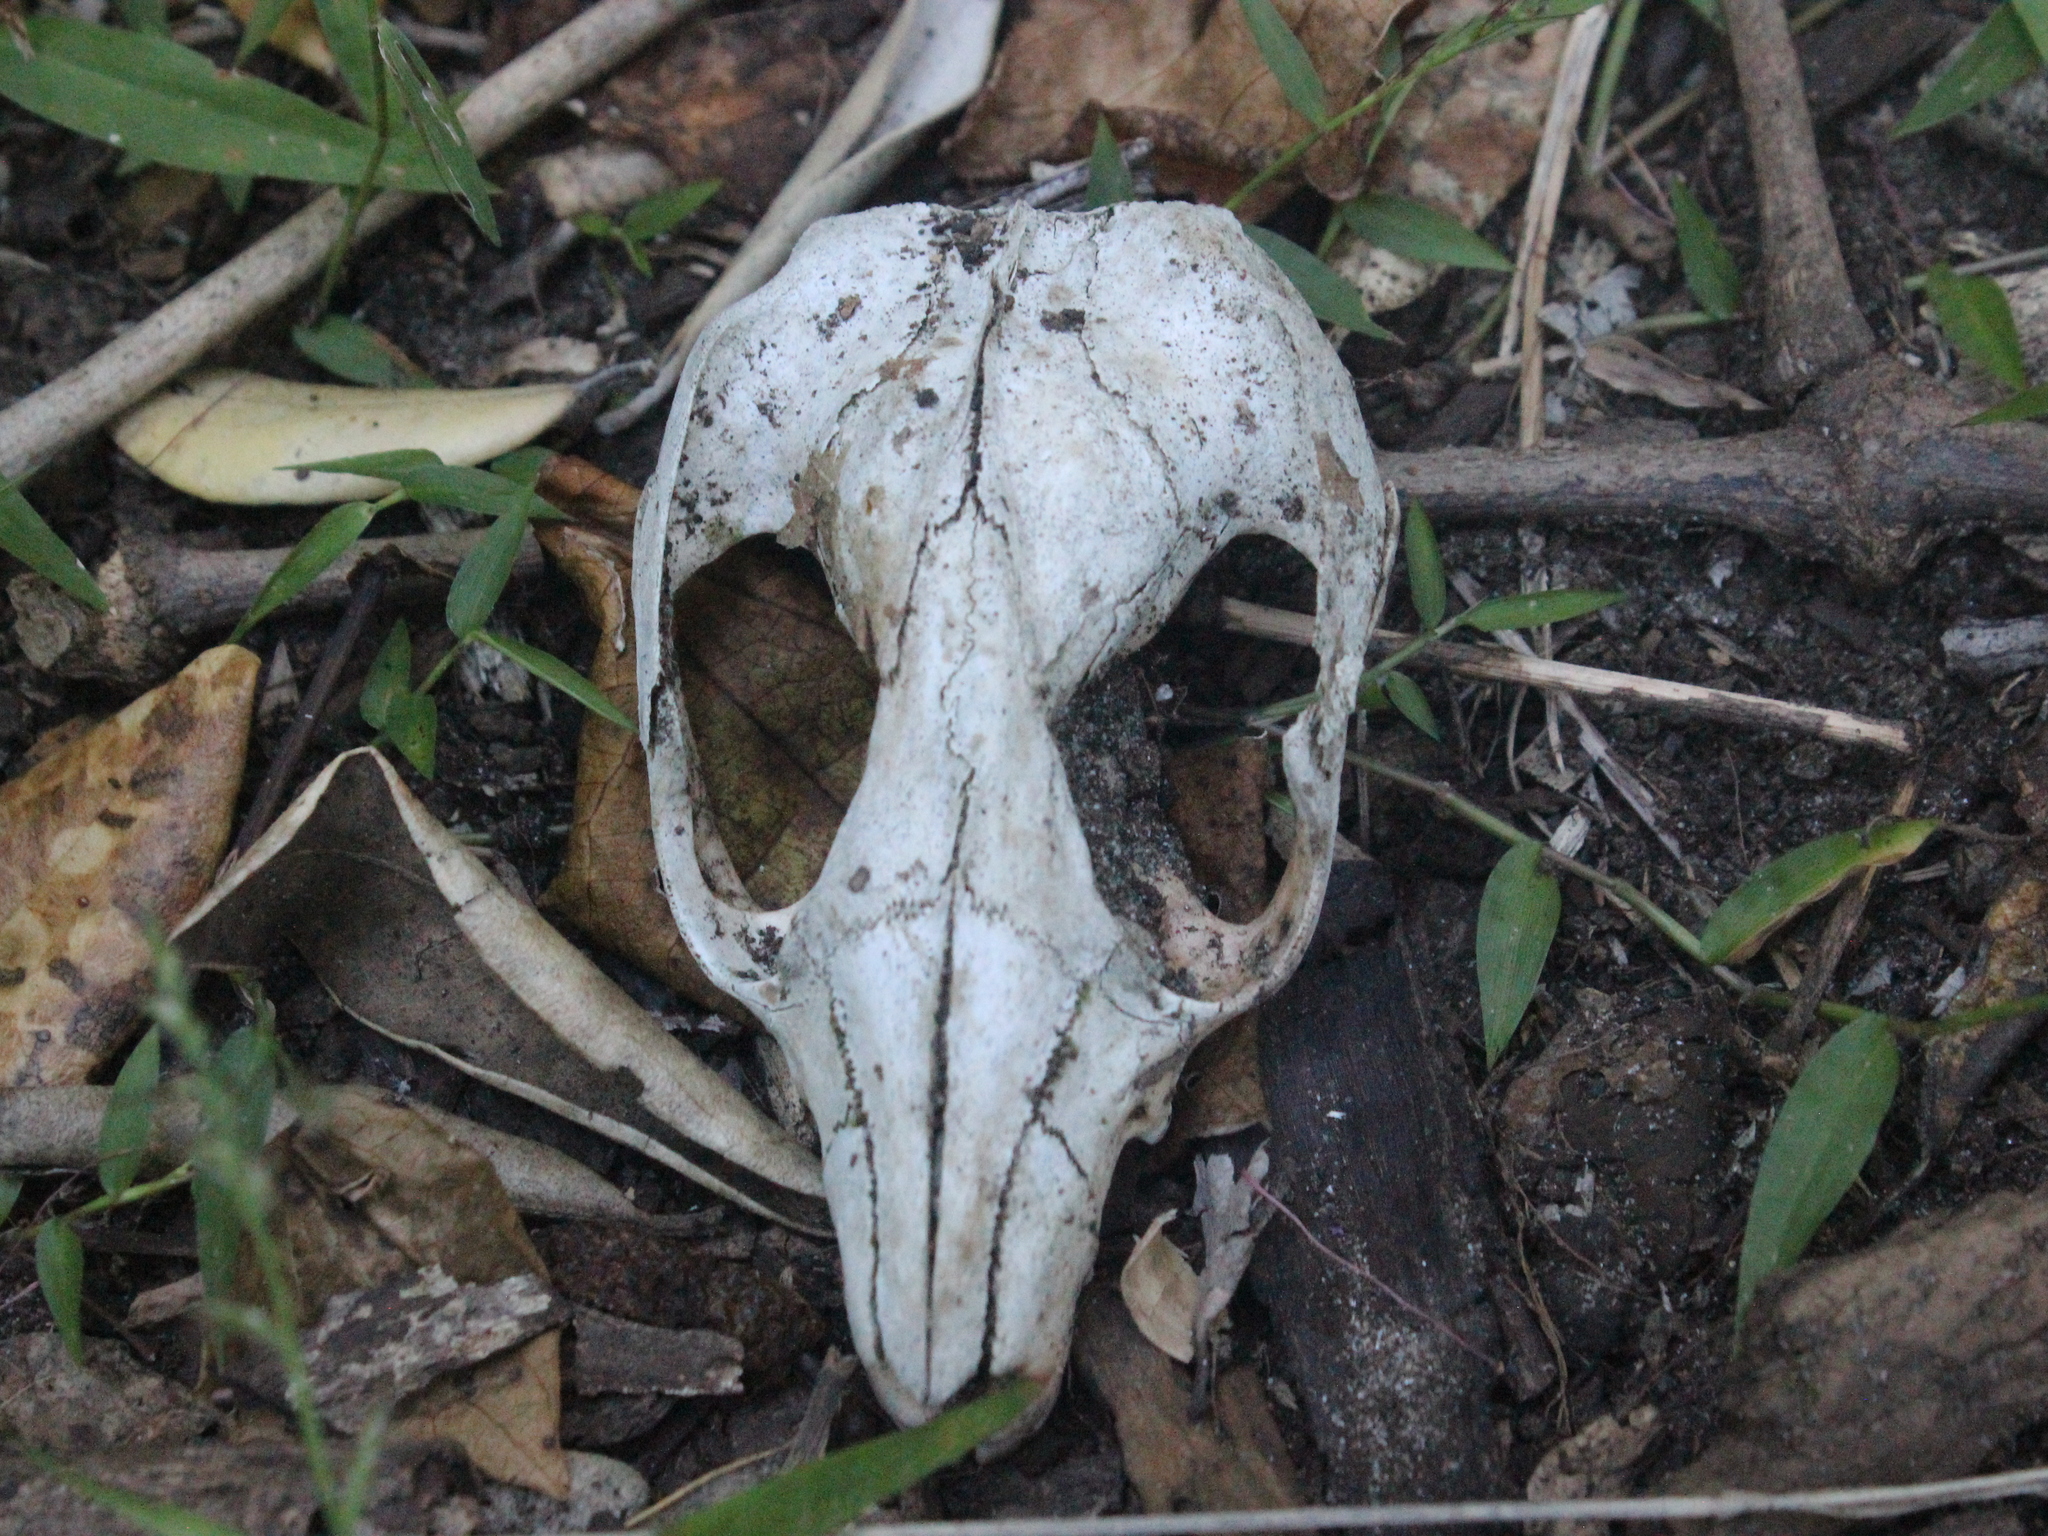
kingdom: Animalia
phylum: Chordata
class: Mammalia
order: Diprotodontia
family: Phalangeridae
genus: Trichosurus
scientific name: Trichosurus vulpecula
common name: Common brushtail
